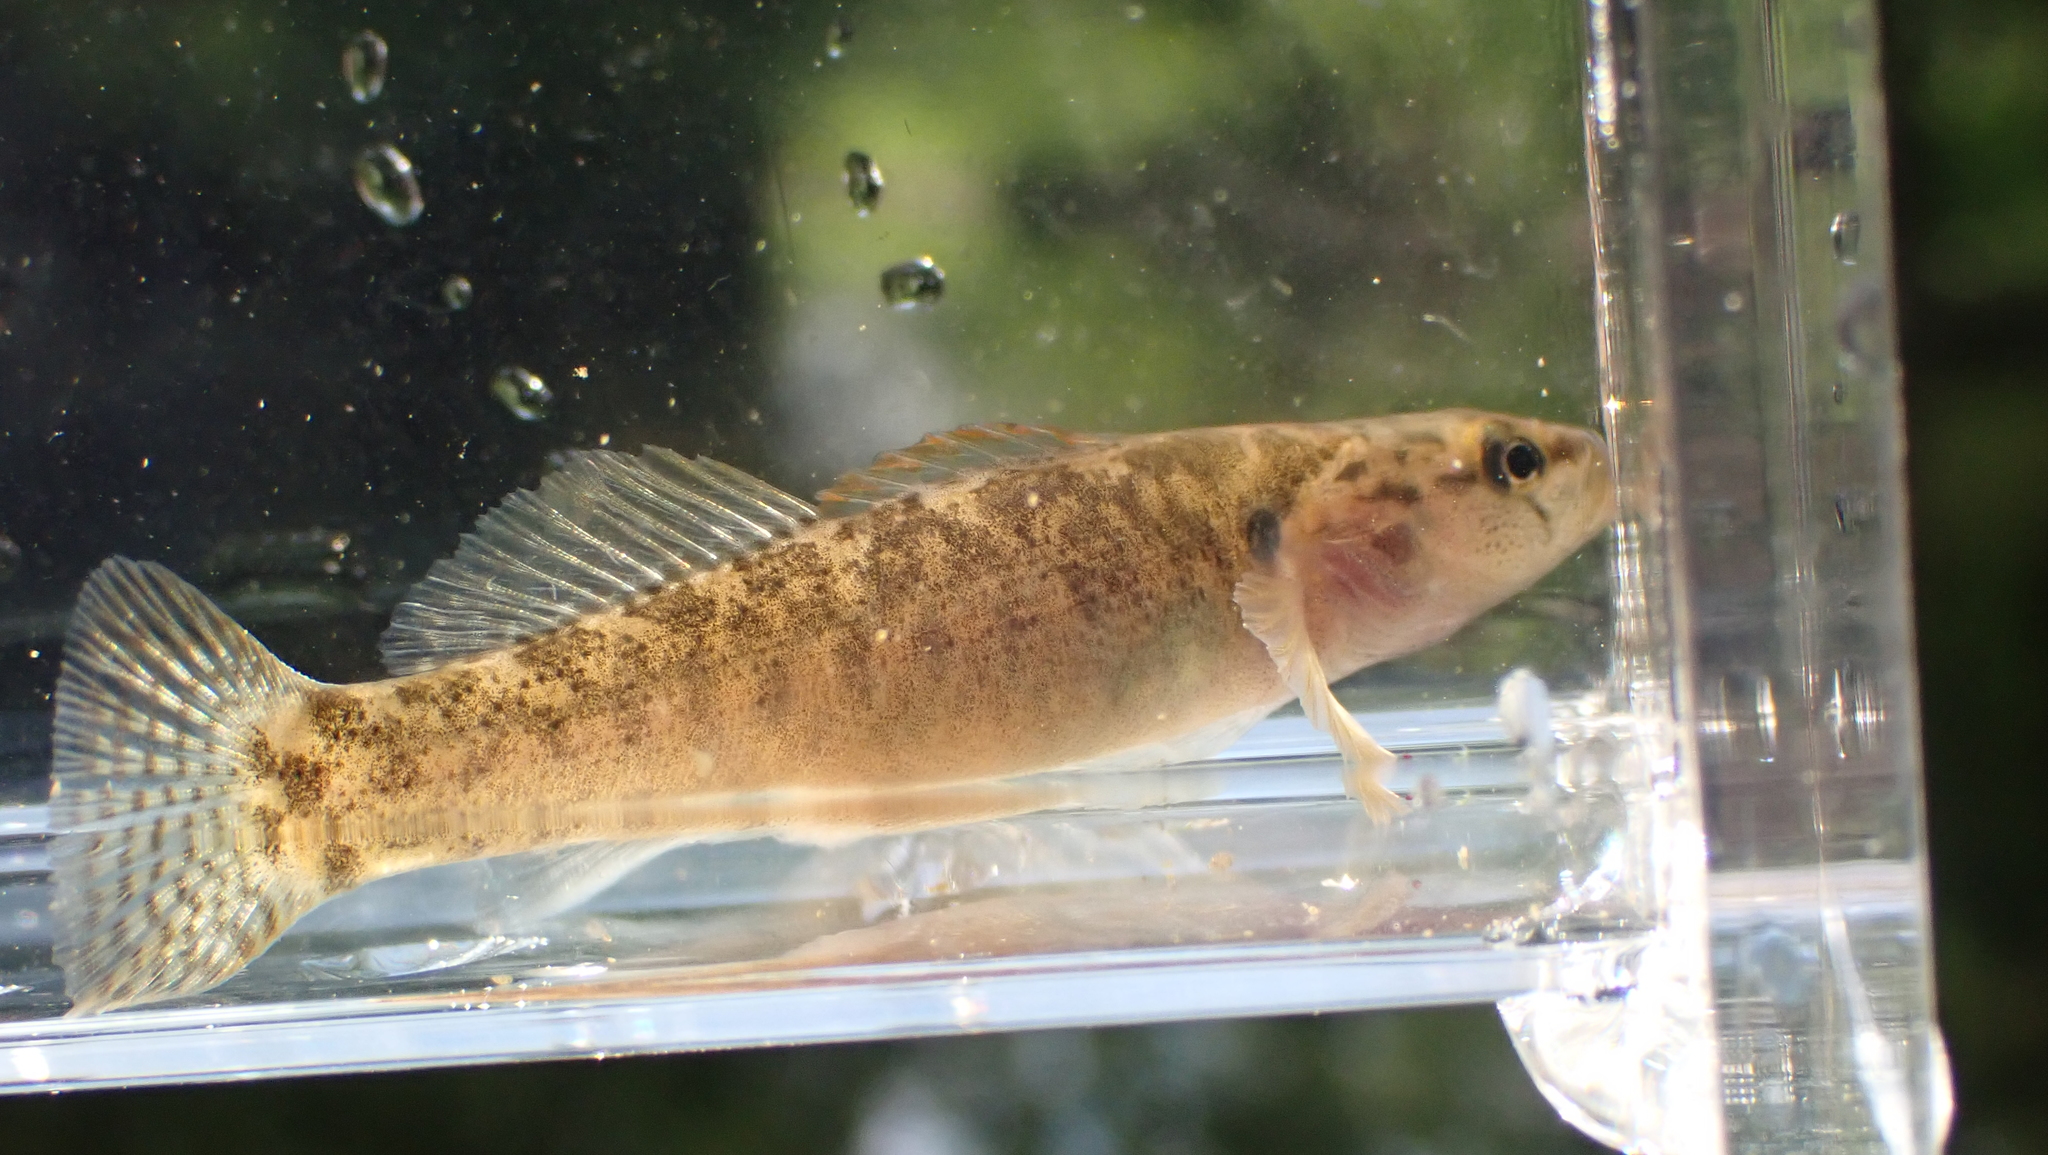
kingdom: Animalia
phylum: Chordata
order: Perciformes
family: Percidae
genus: Etheostoma
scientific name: Etheostoma flabellare
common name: Fantail darter
